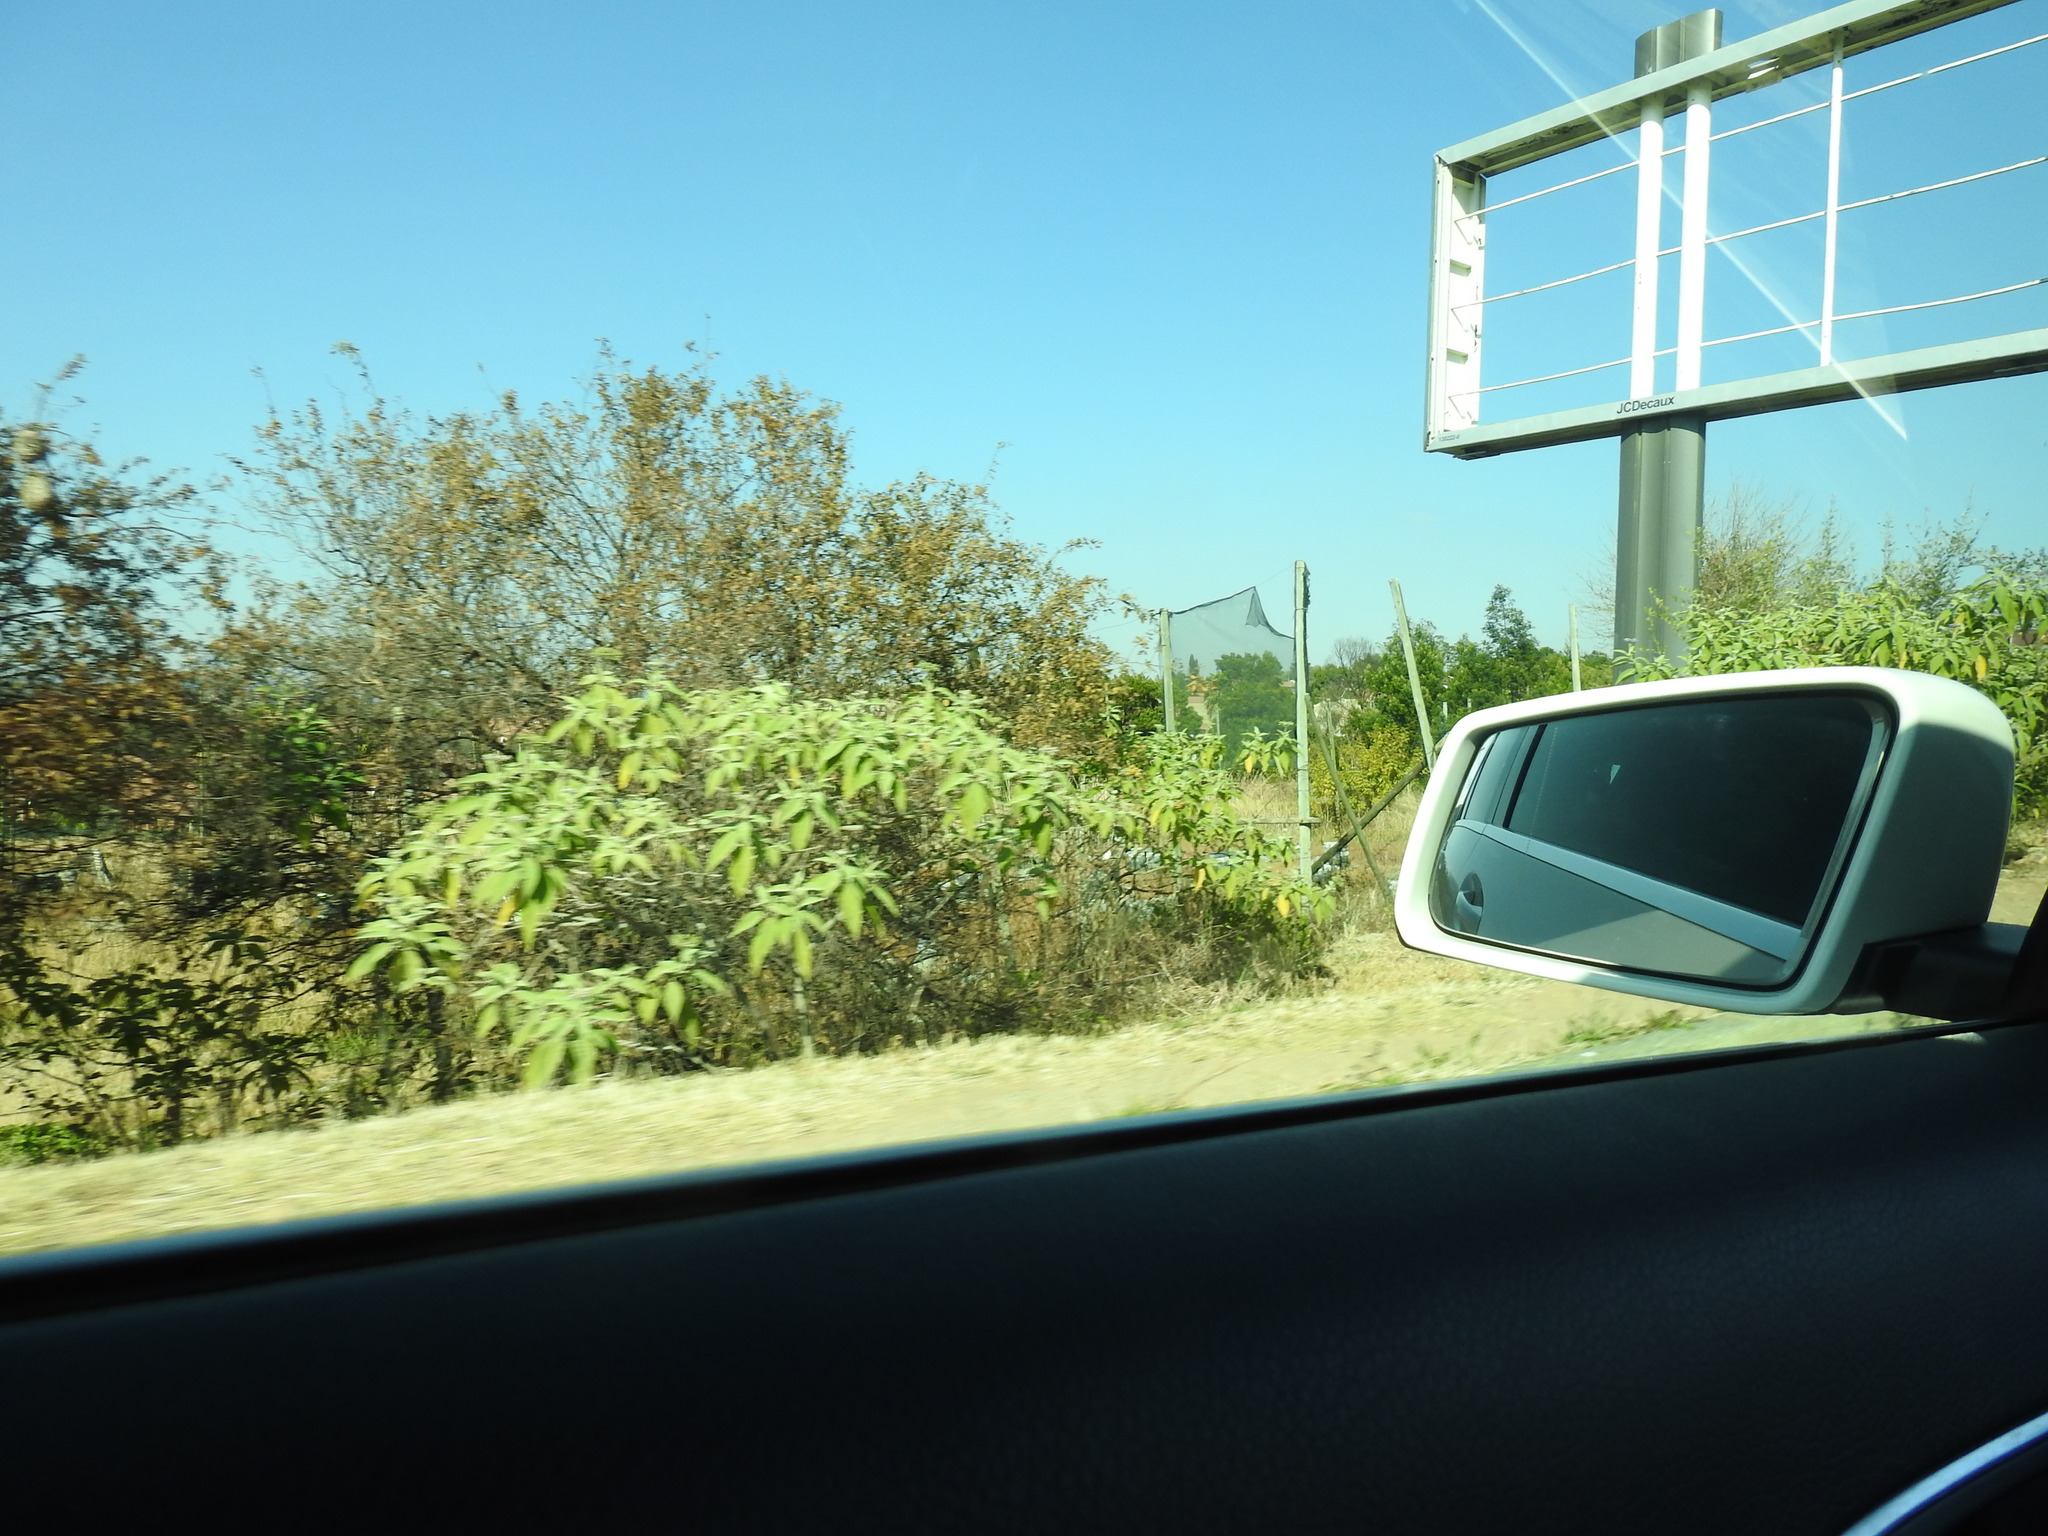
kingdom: Plantae
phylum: Tracheophyta
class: Magnoliopsida
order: Solanales
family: Solanaceae
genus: Solanum
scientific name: Solanum mauritianum
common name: Earleaf nightshade
